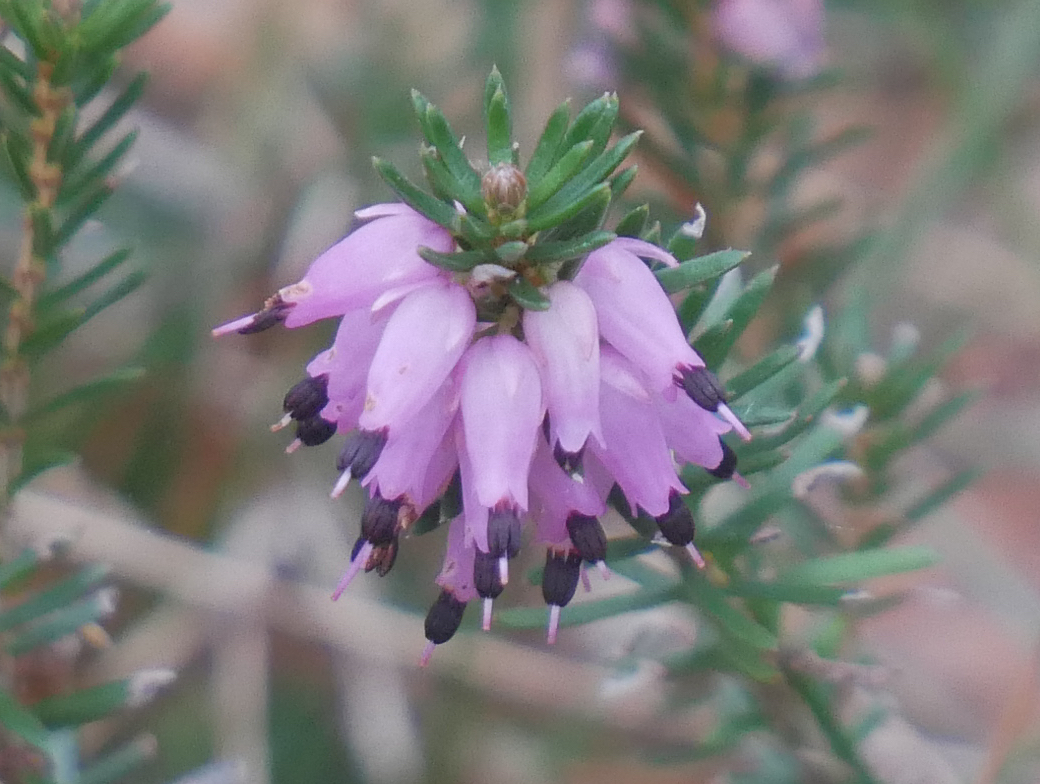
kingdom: Plantae
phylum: Tracheophyta
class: Magnoliopsida
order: Ericales
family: Ericaceae
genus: Erica
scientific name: Erica carnea
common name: Winter heath
